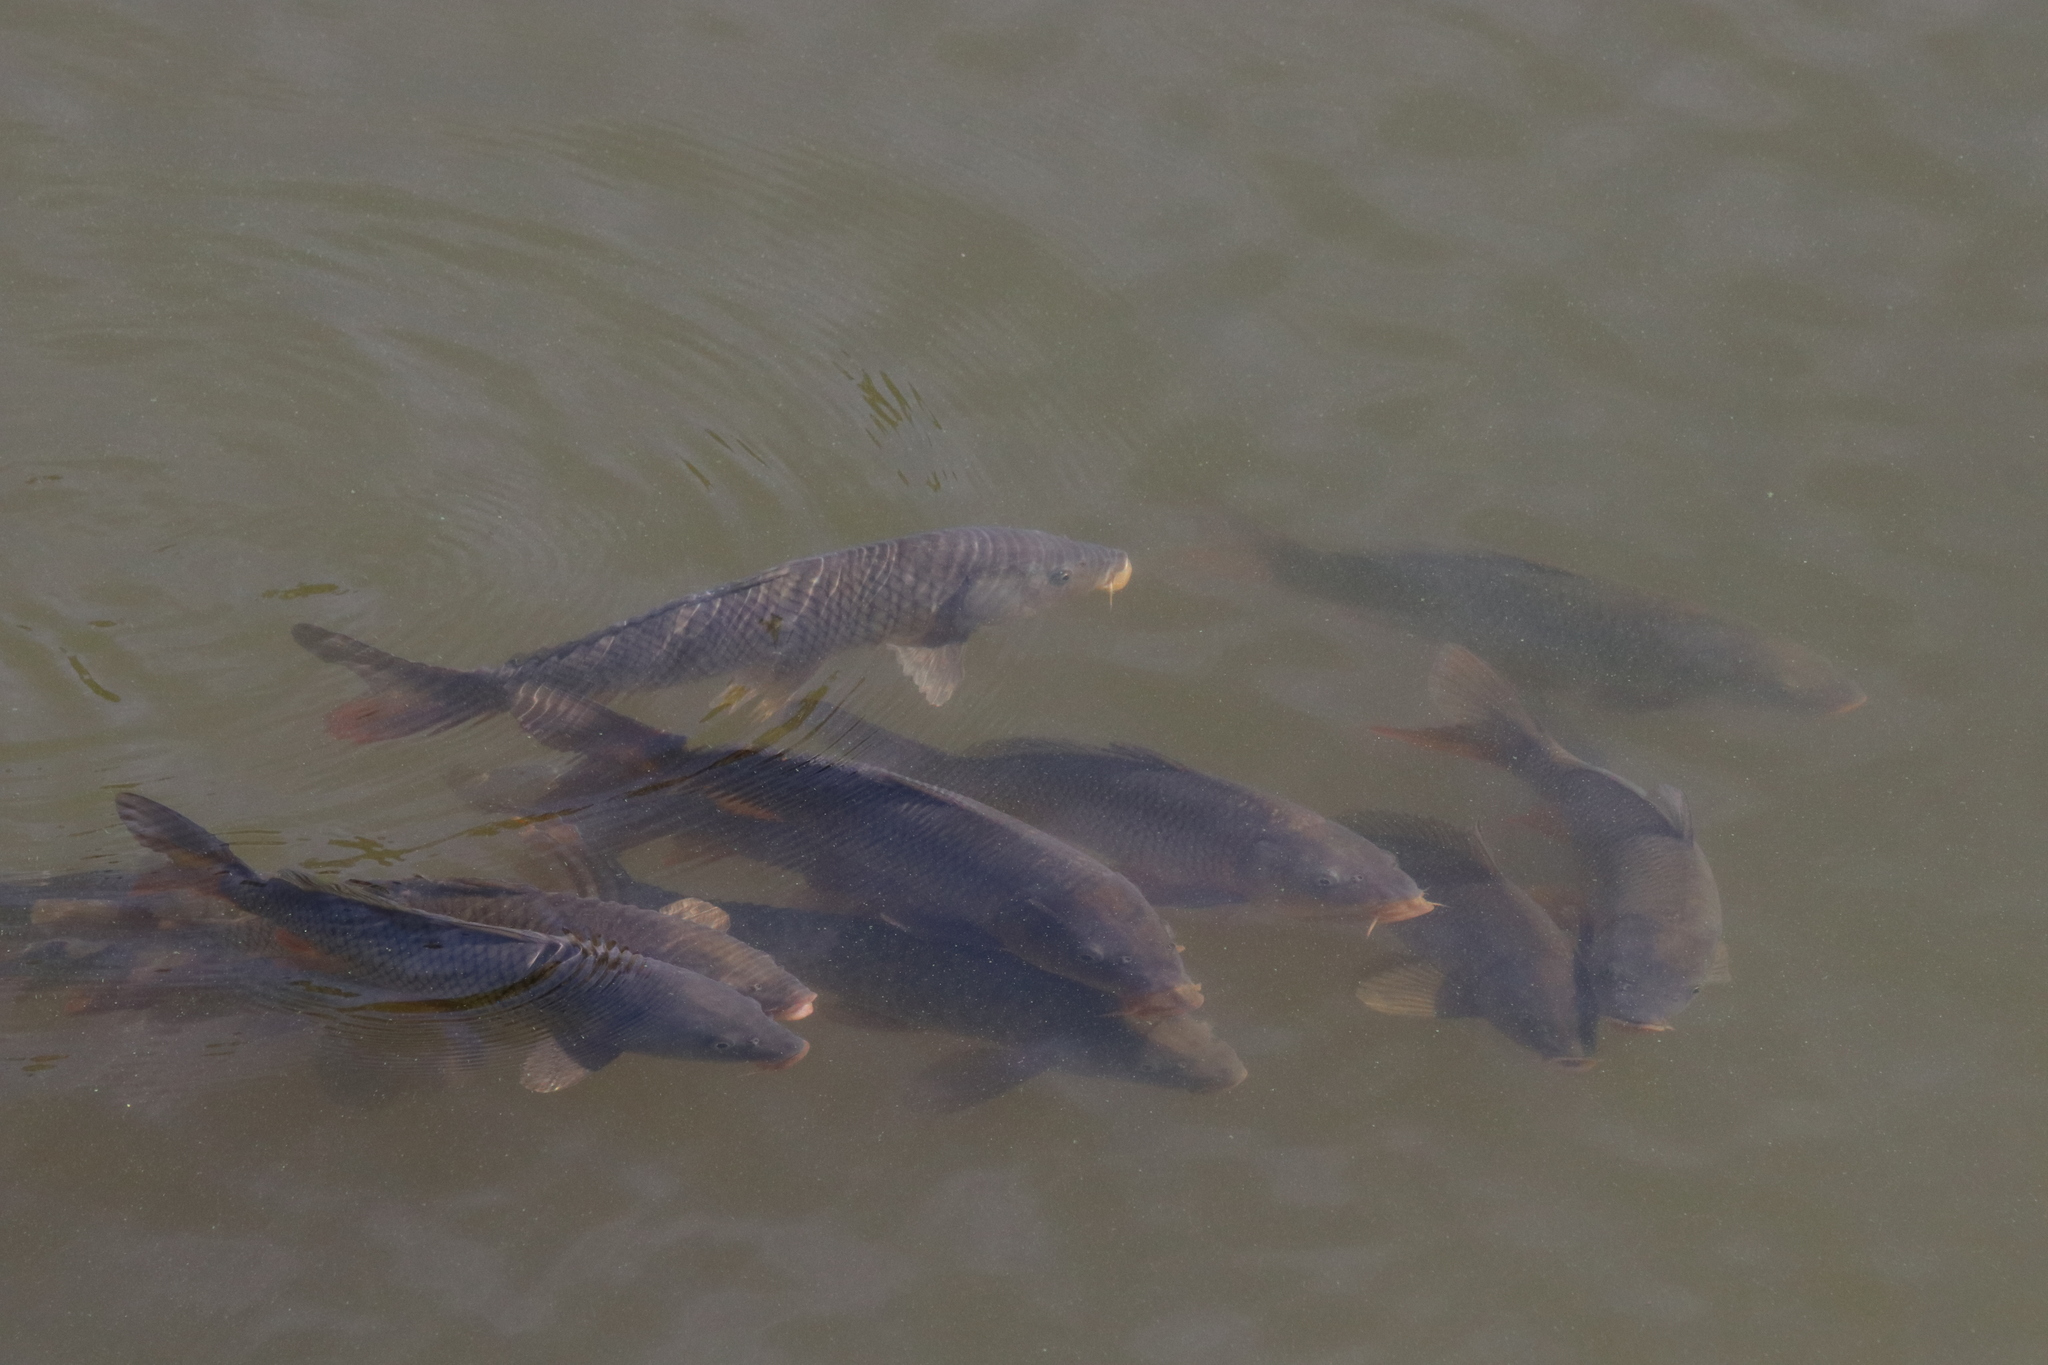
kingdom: Animalia
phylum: Chordata
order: Cypriniformes
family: Cyprinidae
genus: Cyprinus
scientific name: Cyprinus carpio
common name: Common carp
